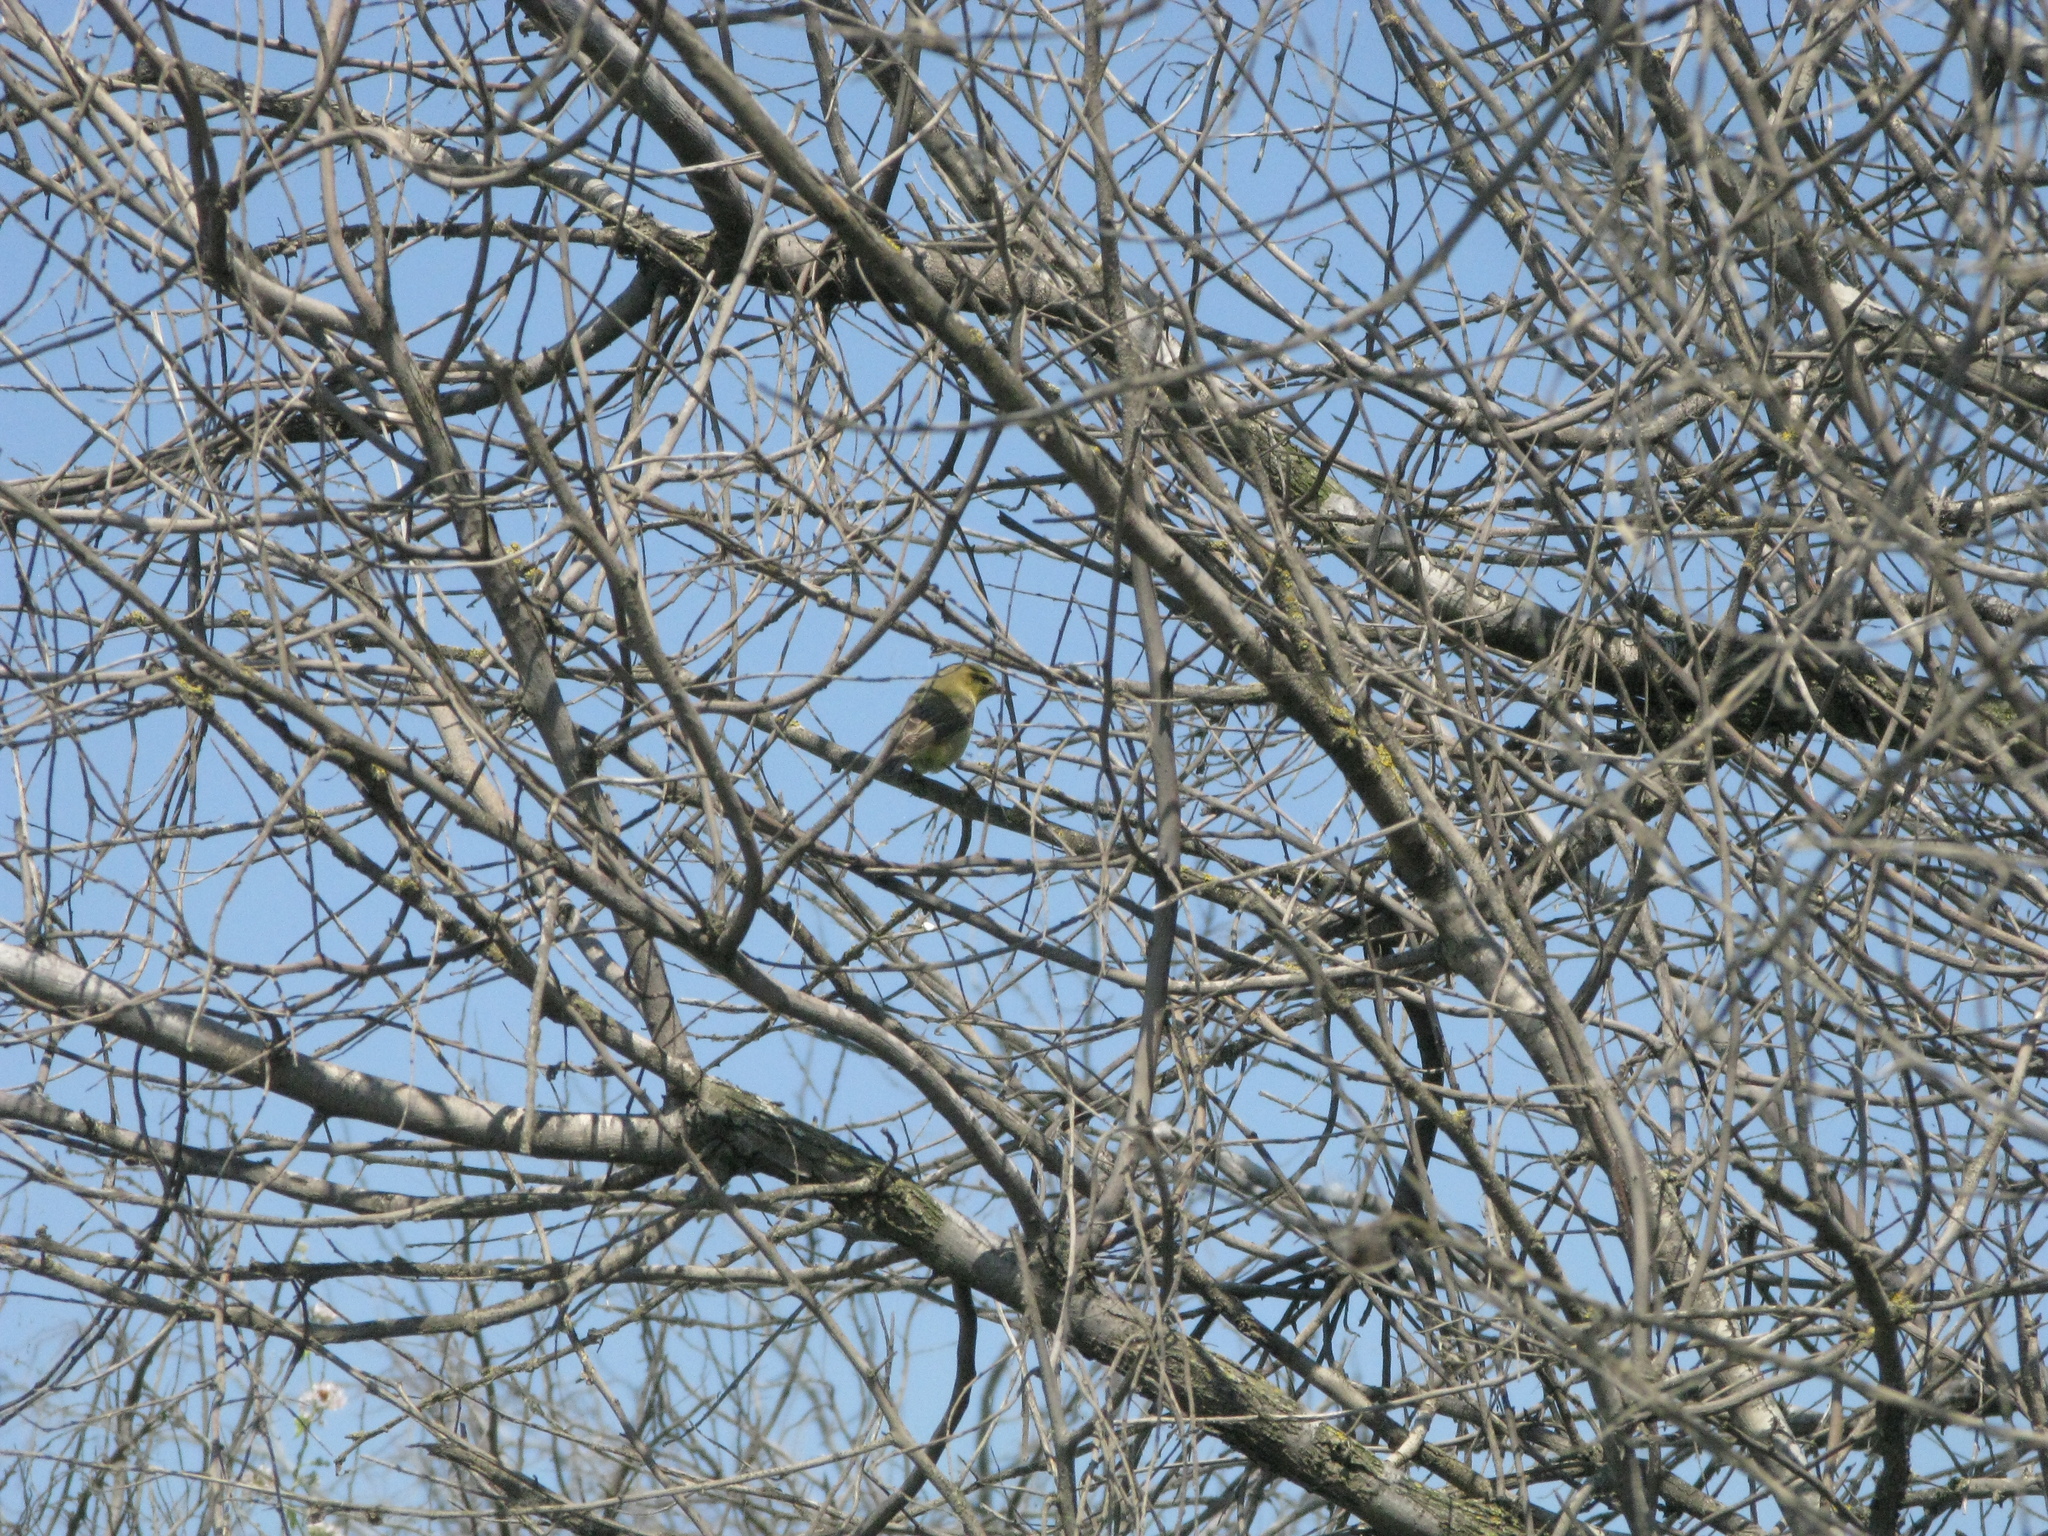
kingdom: Animalia
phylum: Chordata
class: Aves
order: Passeriformes
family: Phylloscopidae
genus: Phylloscopus
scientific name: Phylloscopus trochilus
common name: Willow warbler
